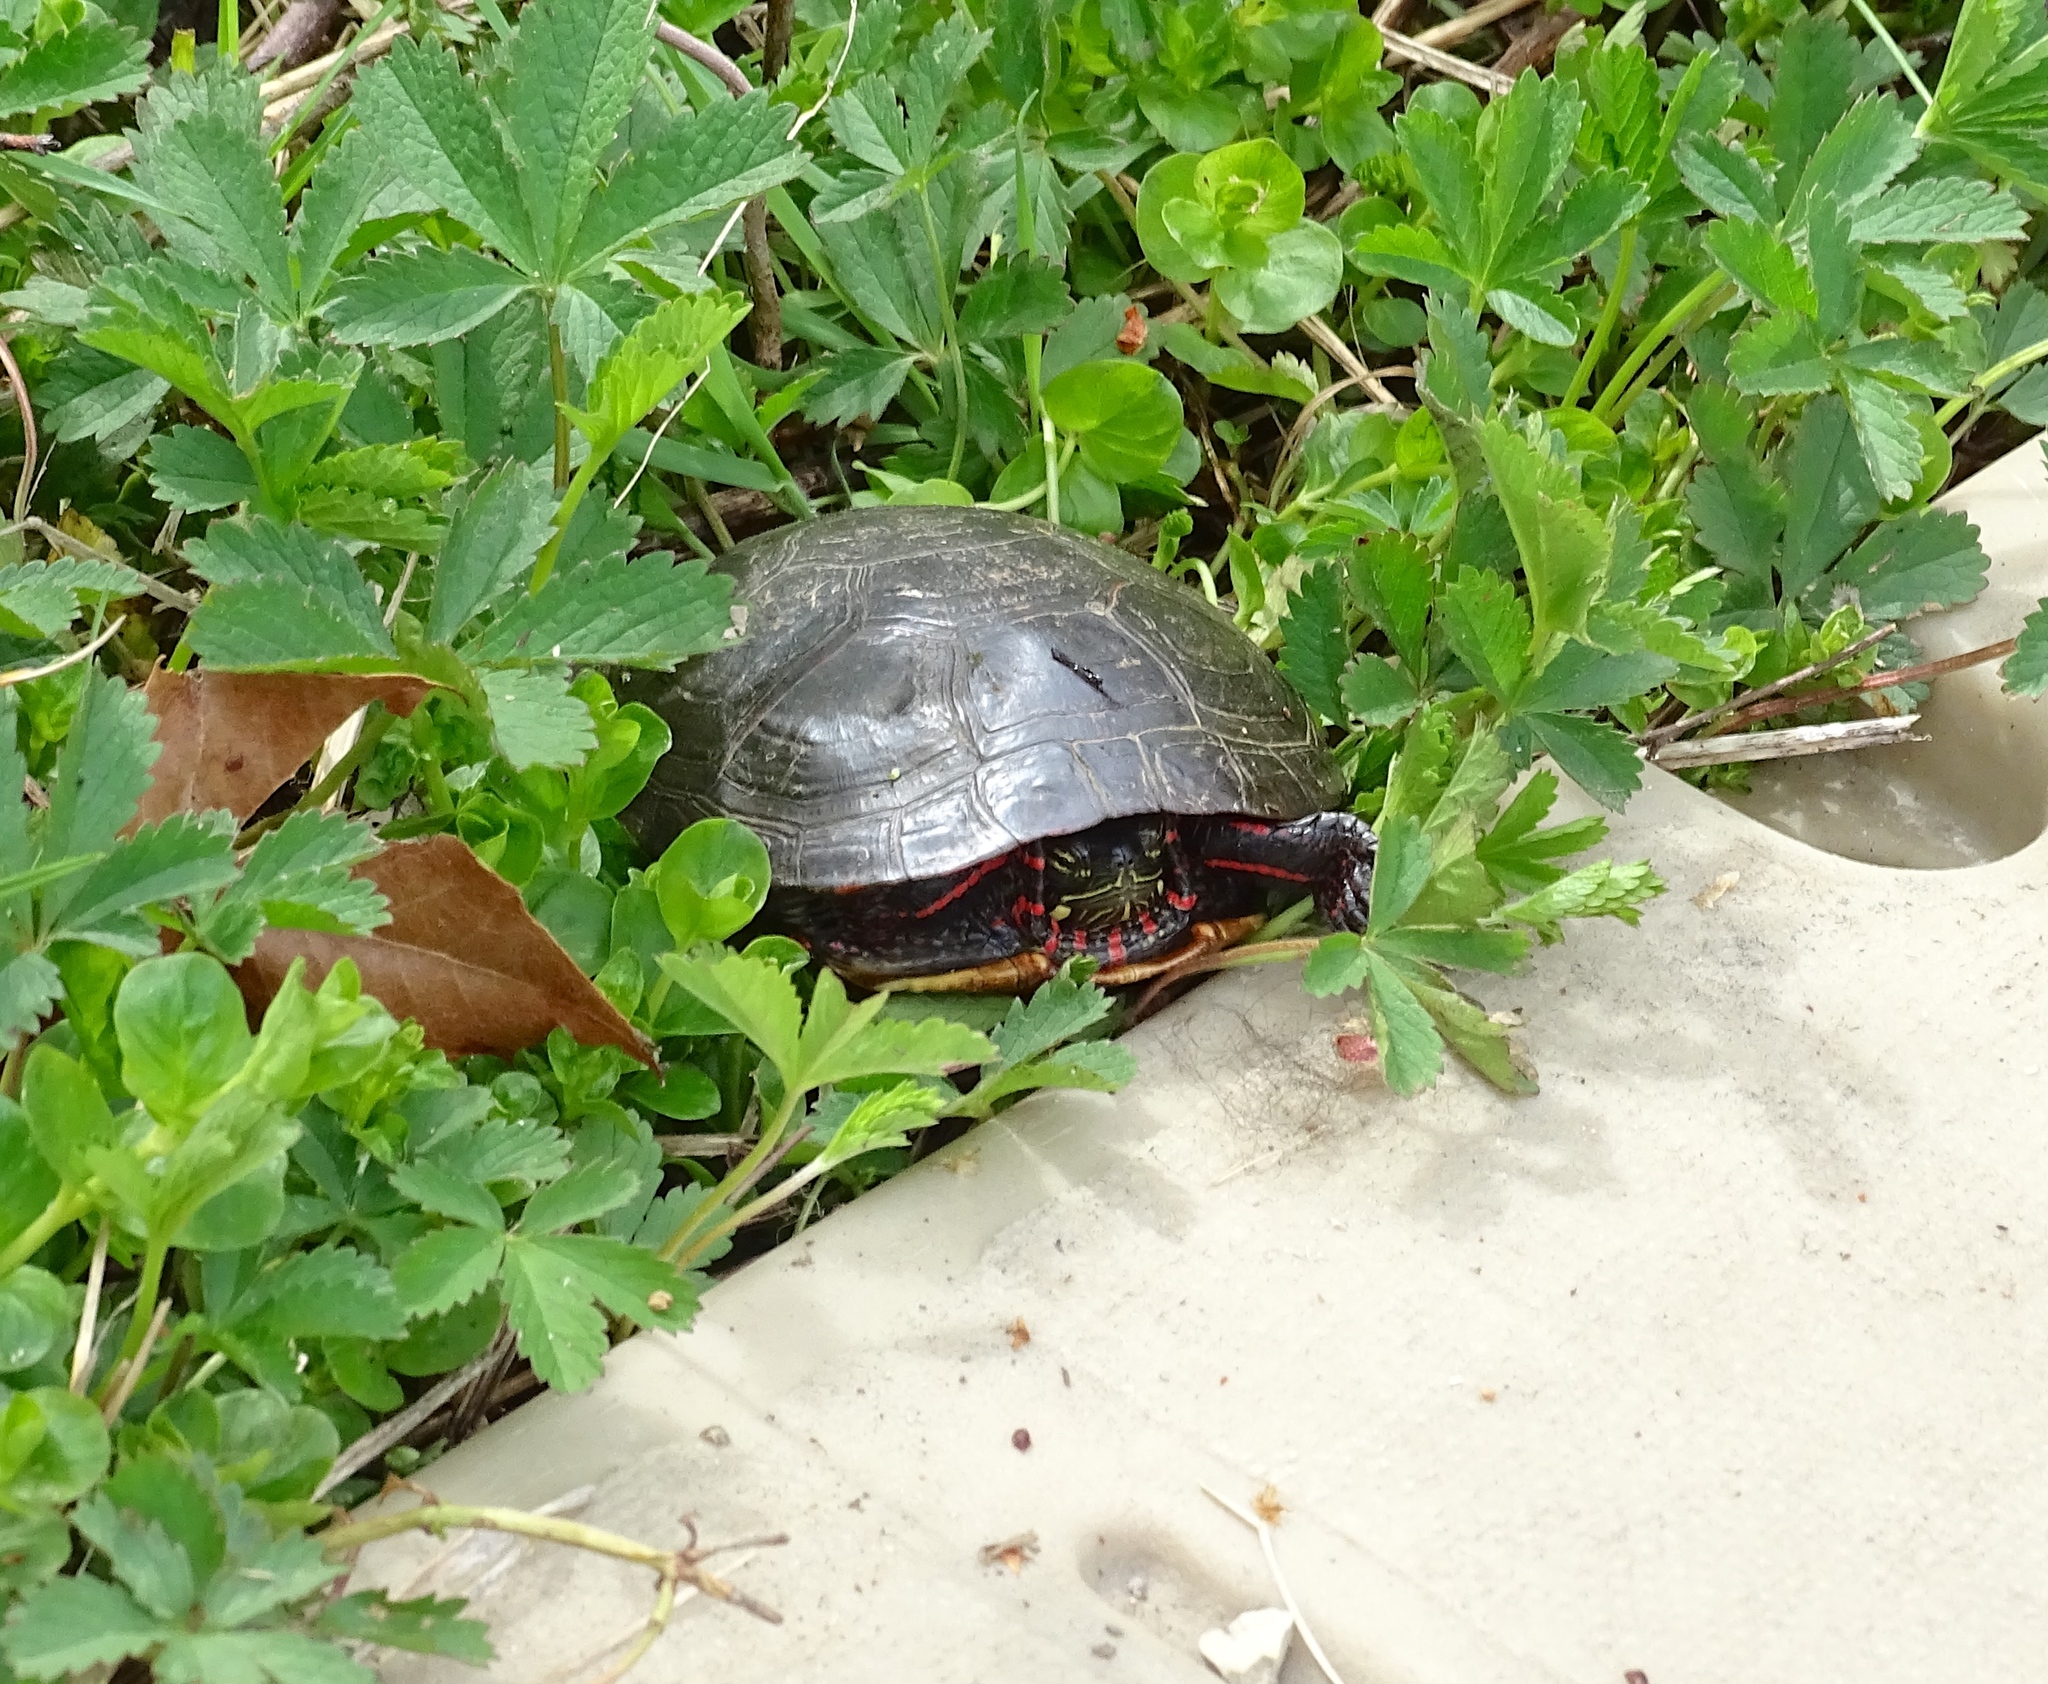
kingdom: Animalia
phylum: Chordata
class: Testudines
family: Emydidae
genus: Chrysemys
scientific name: Chrysemys picta
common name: Painted turtle
